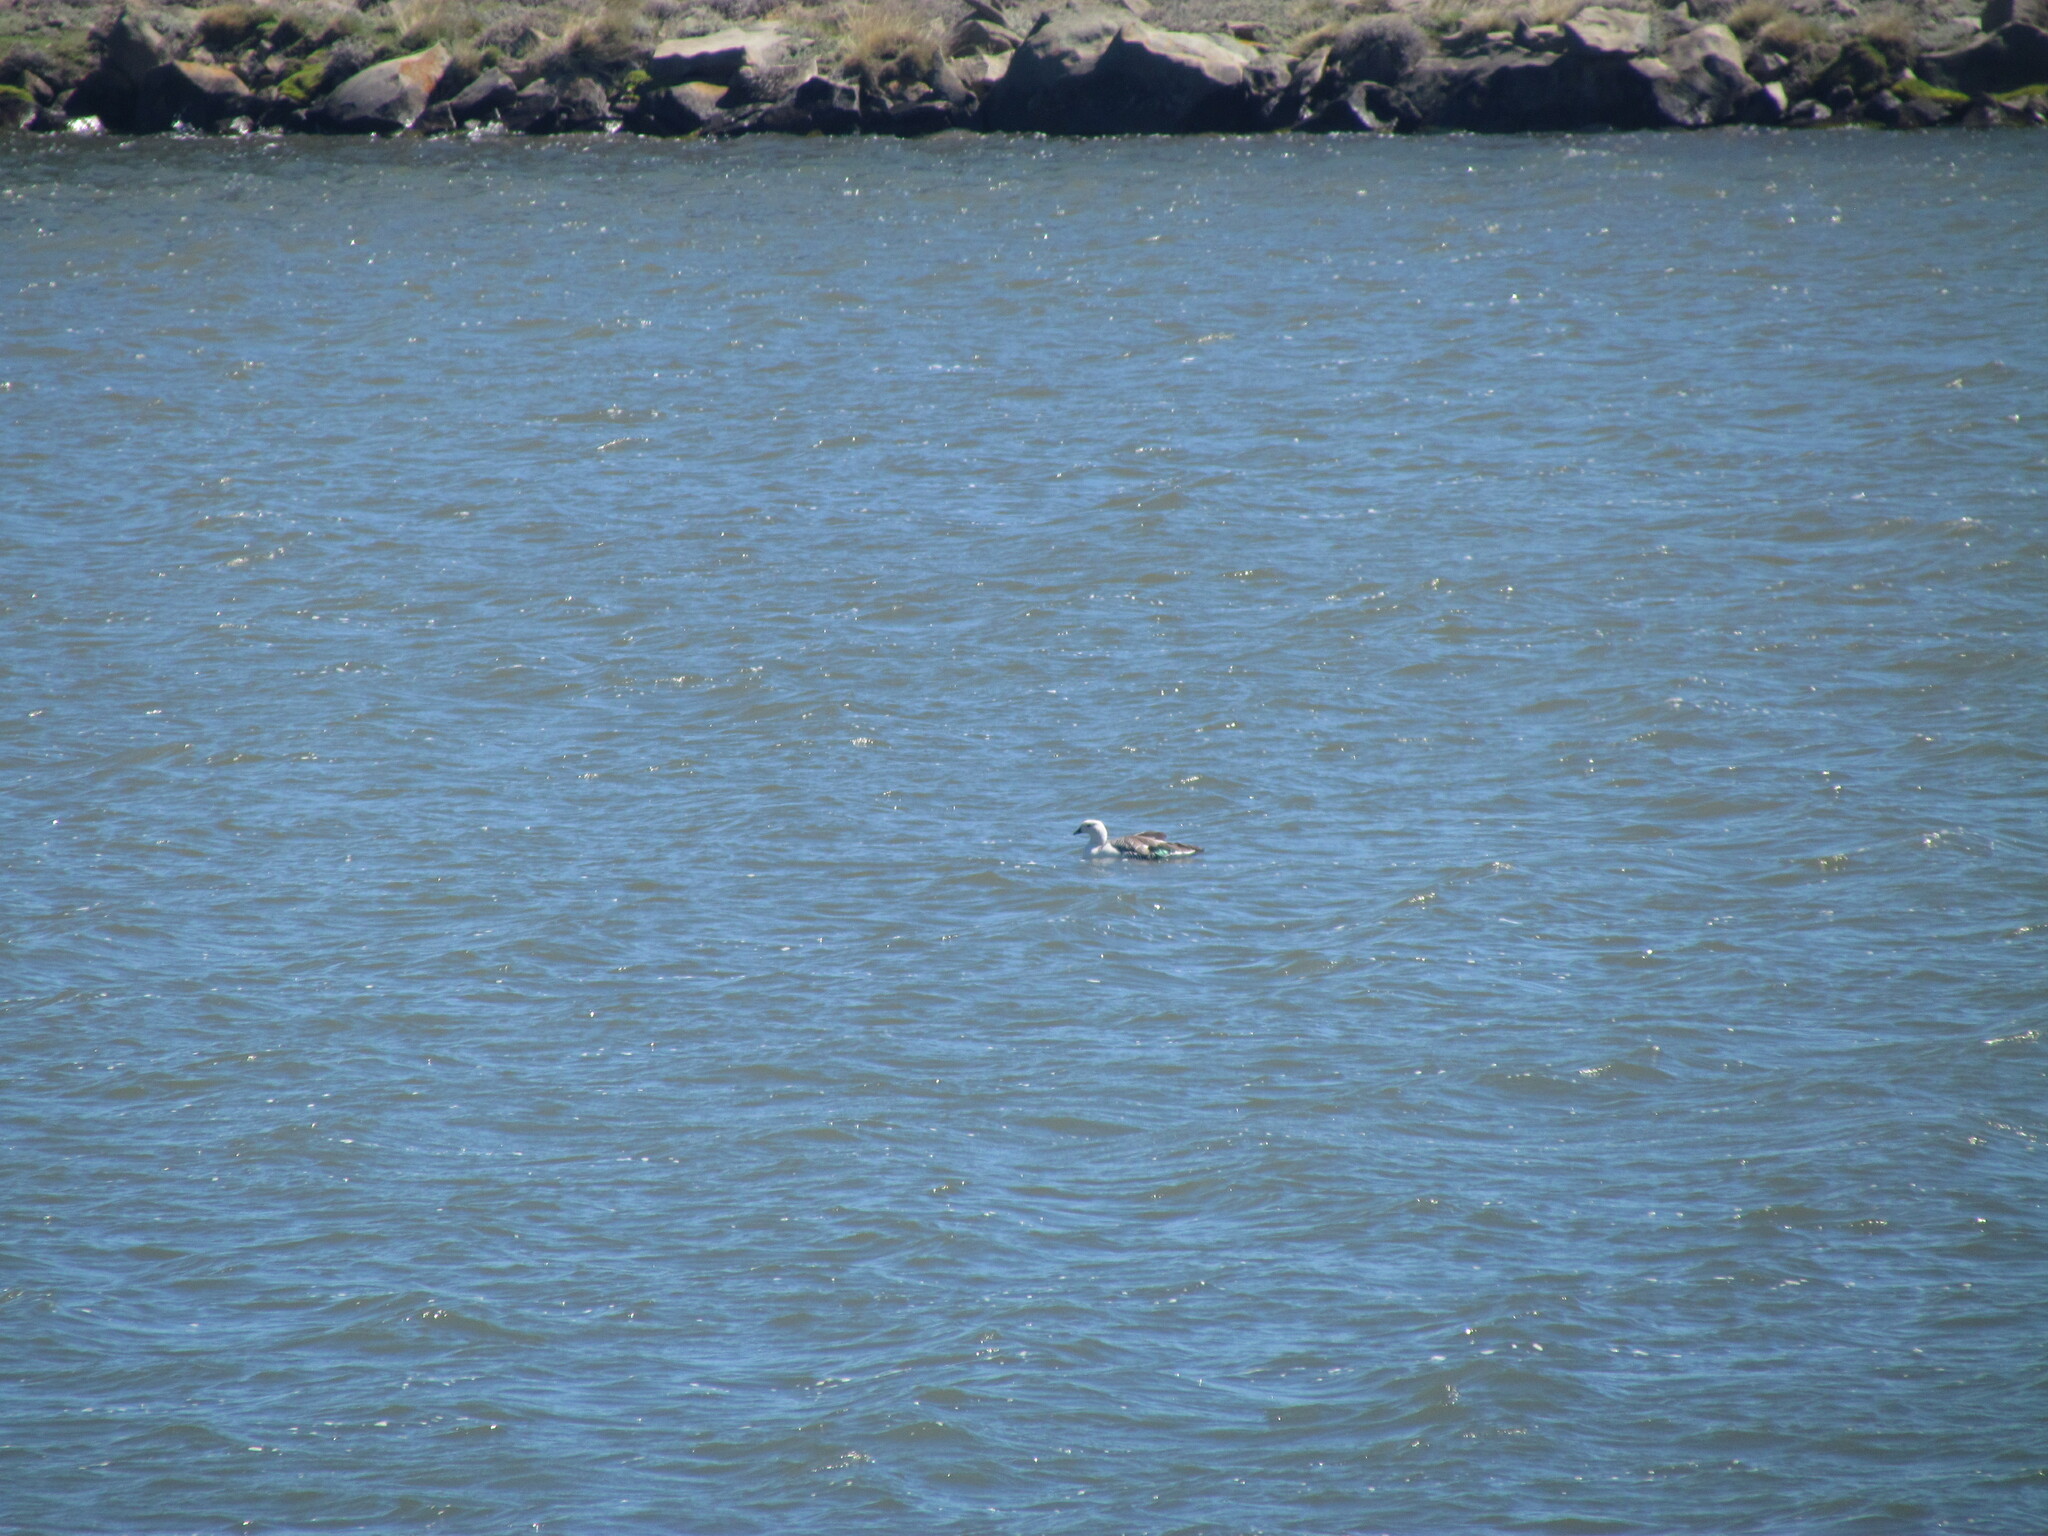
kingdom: Animalia
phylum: Chordata
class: Aves
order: Anseriformes
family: Anatidae
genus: Chloephaga
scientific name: Chloephaga picta
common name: Upland goose
